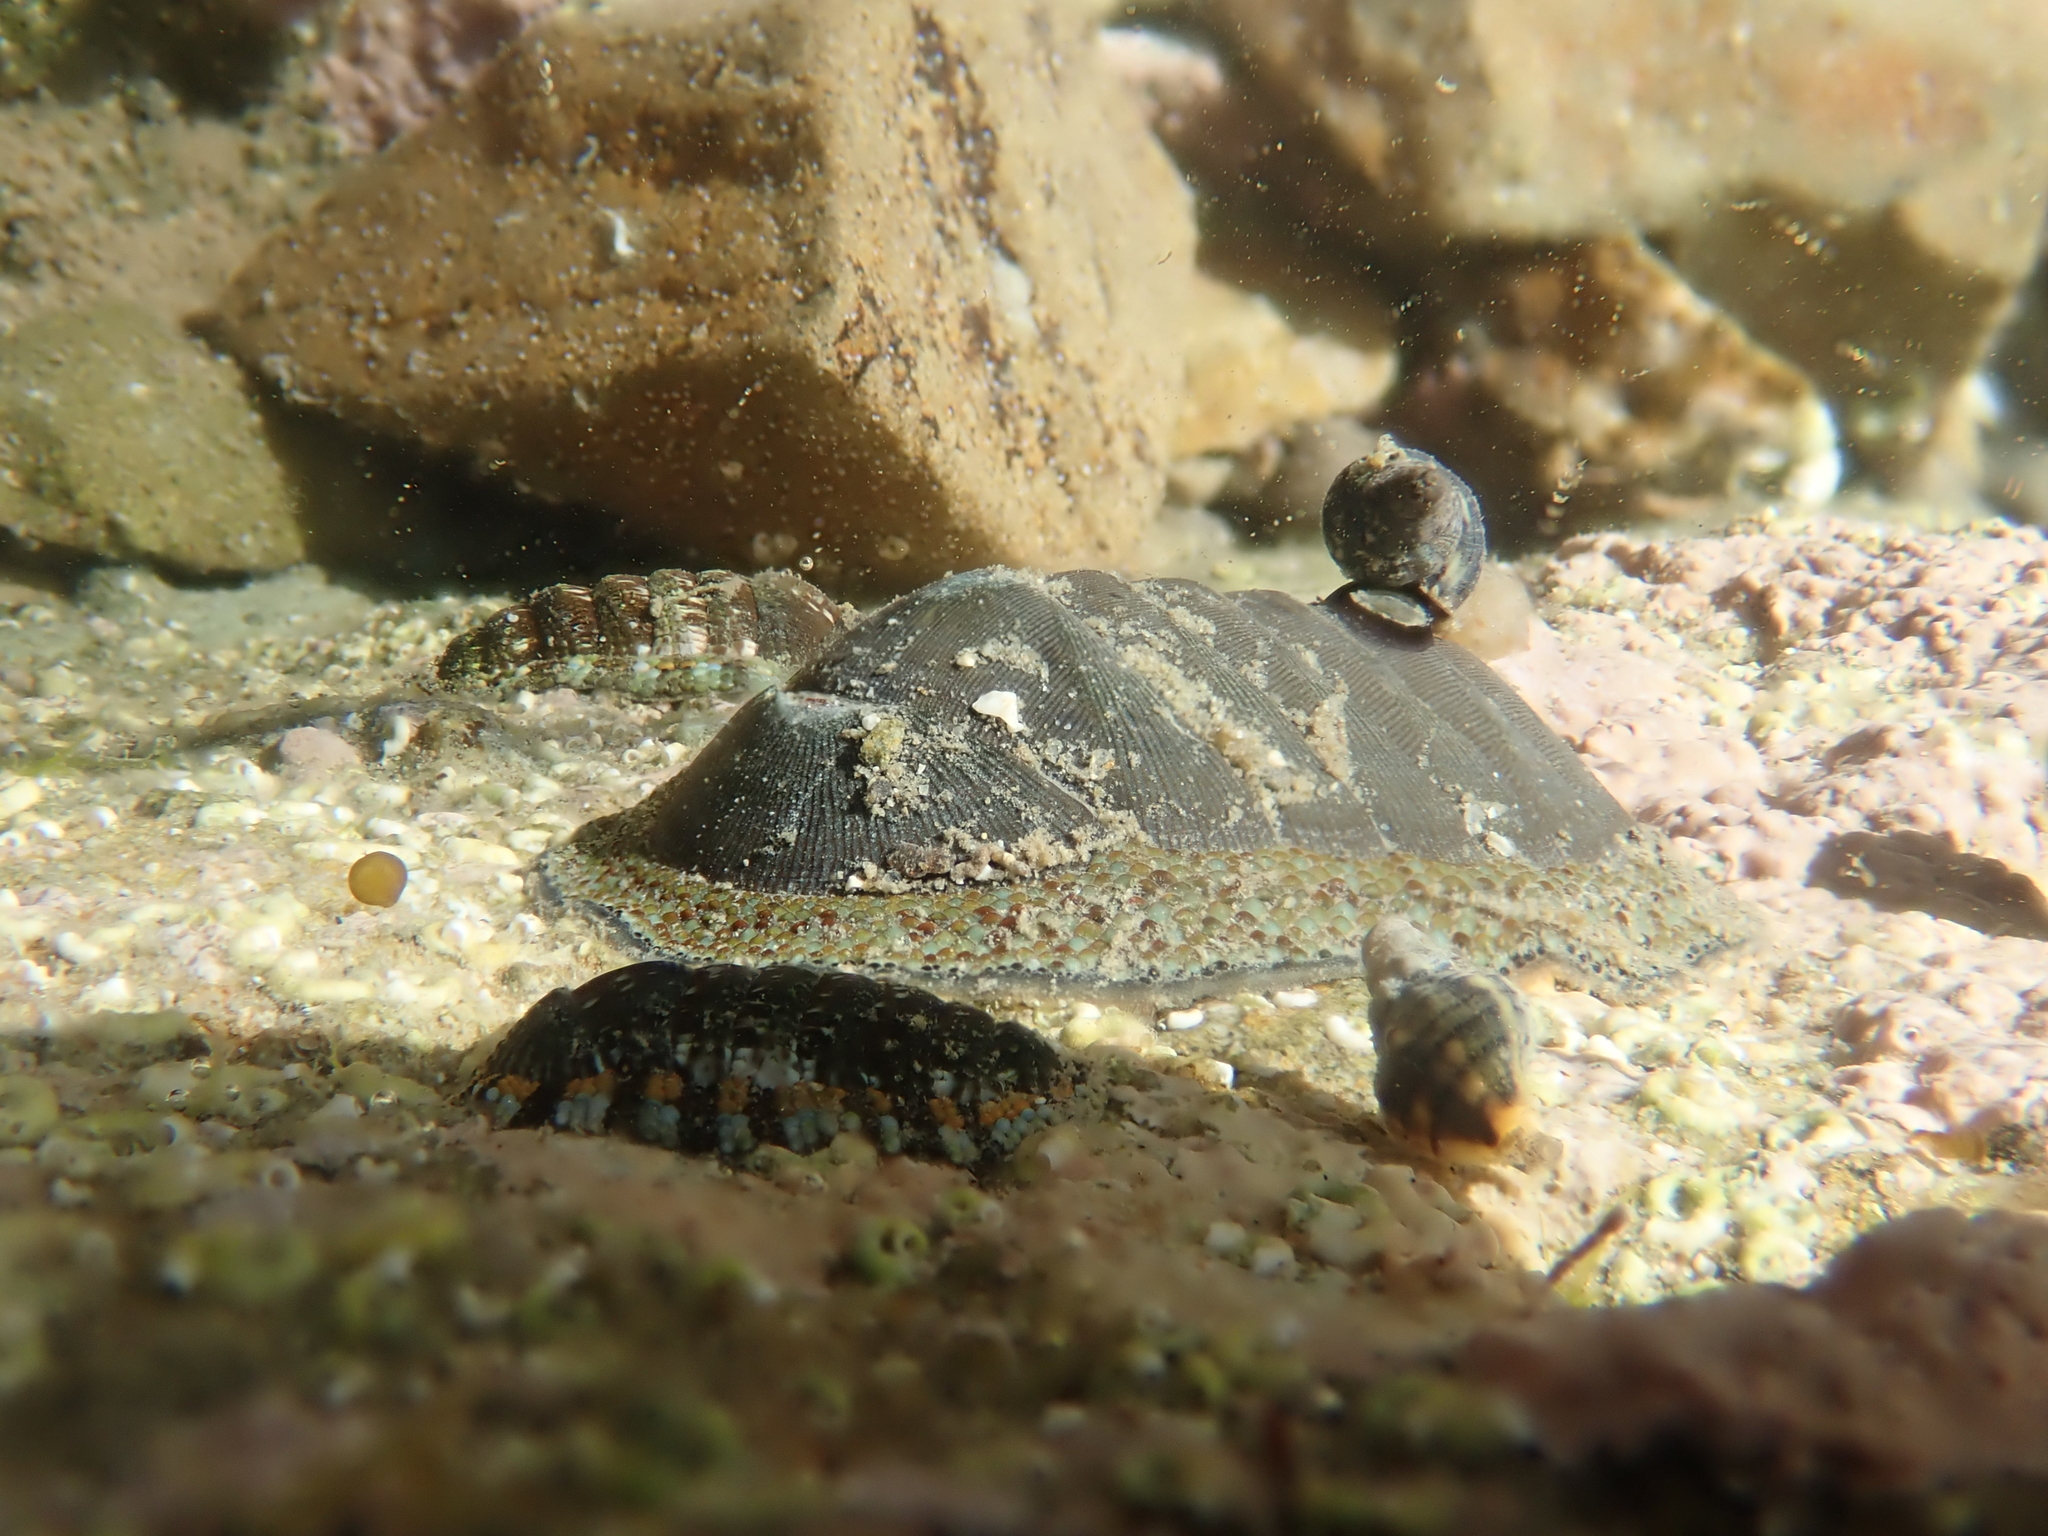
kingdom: Animalia
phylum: Mollusca
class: Polyplacophora
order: Chitonida
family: Chitonidae
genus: Chiton
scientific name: Chiton glaucus
